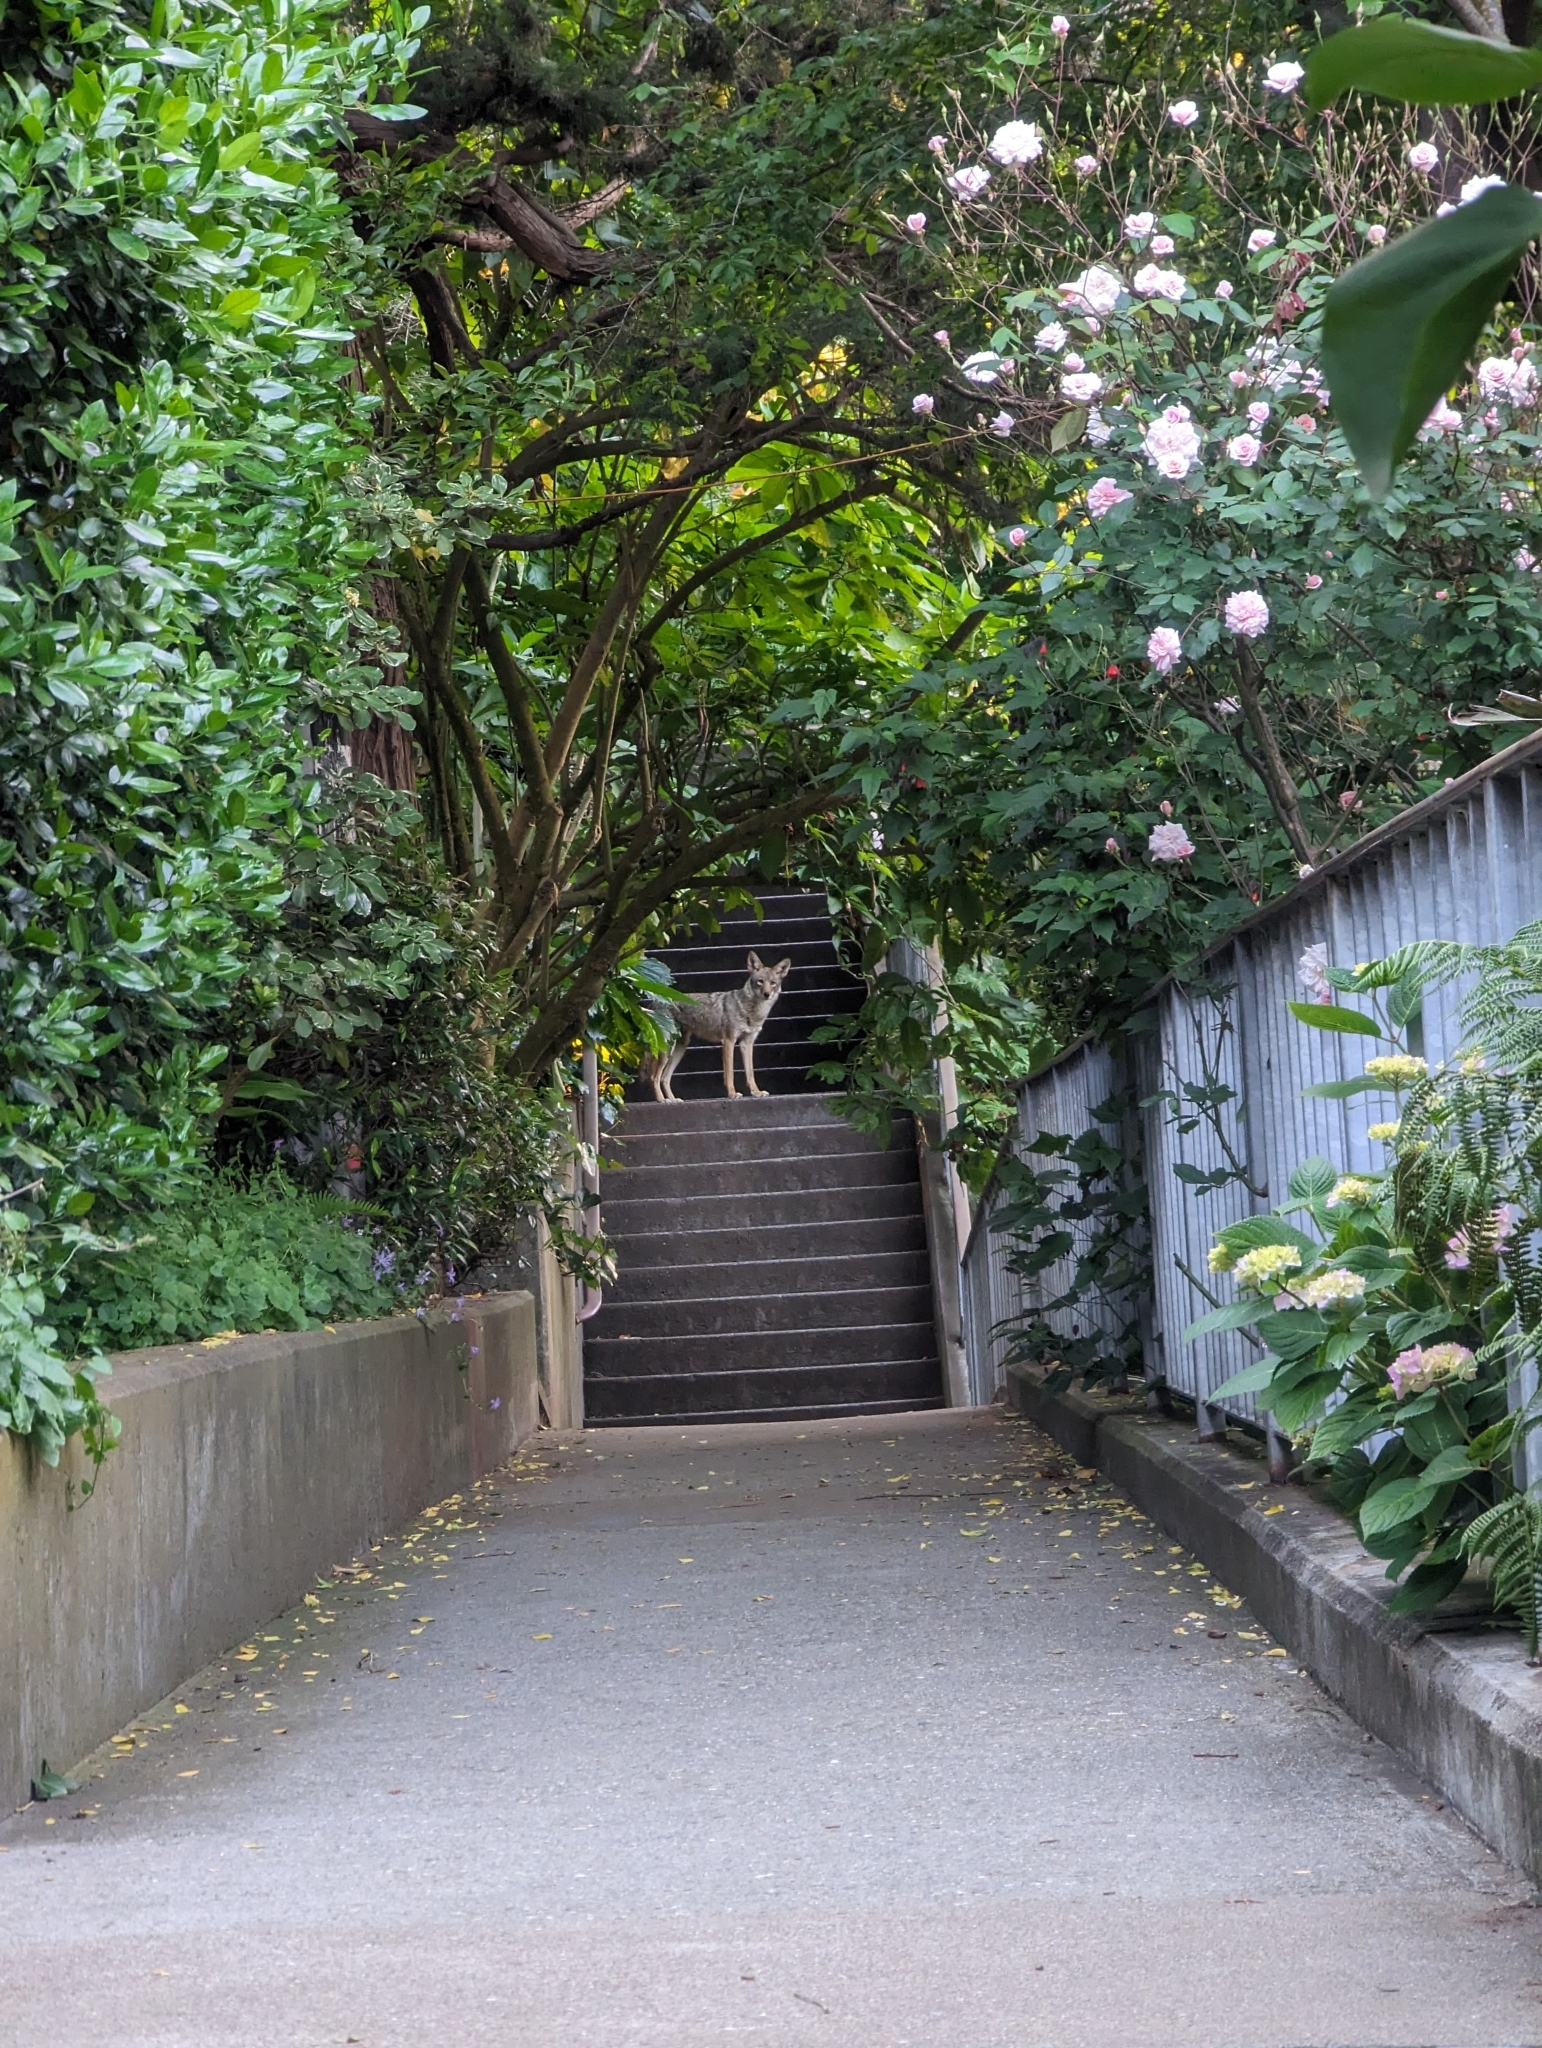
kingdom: Animalia
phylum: Chordata
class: Mammalia
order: Carnivora
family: Canidae
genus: Canis
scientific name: Canis latrans
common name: Coyote
